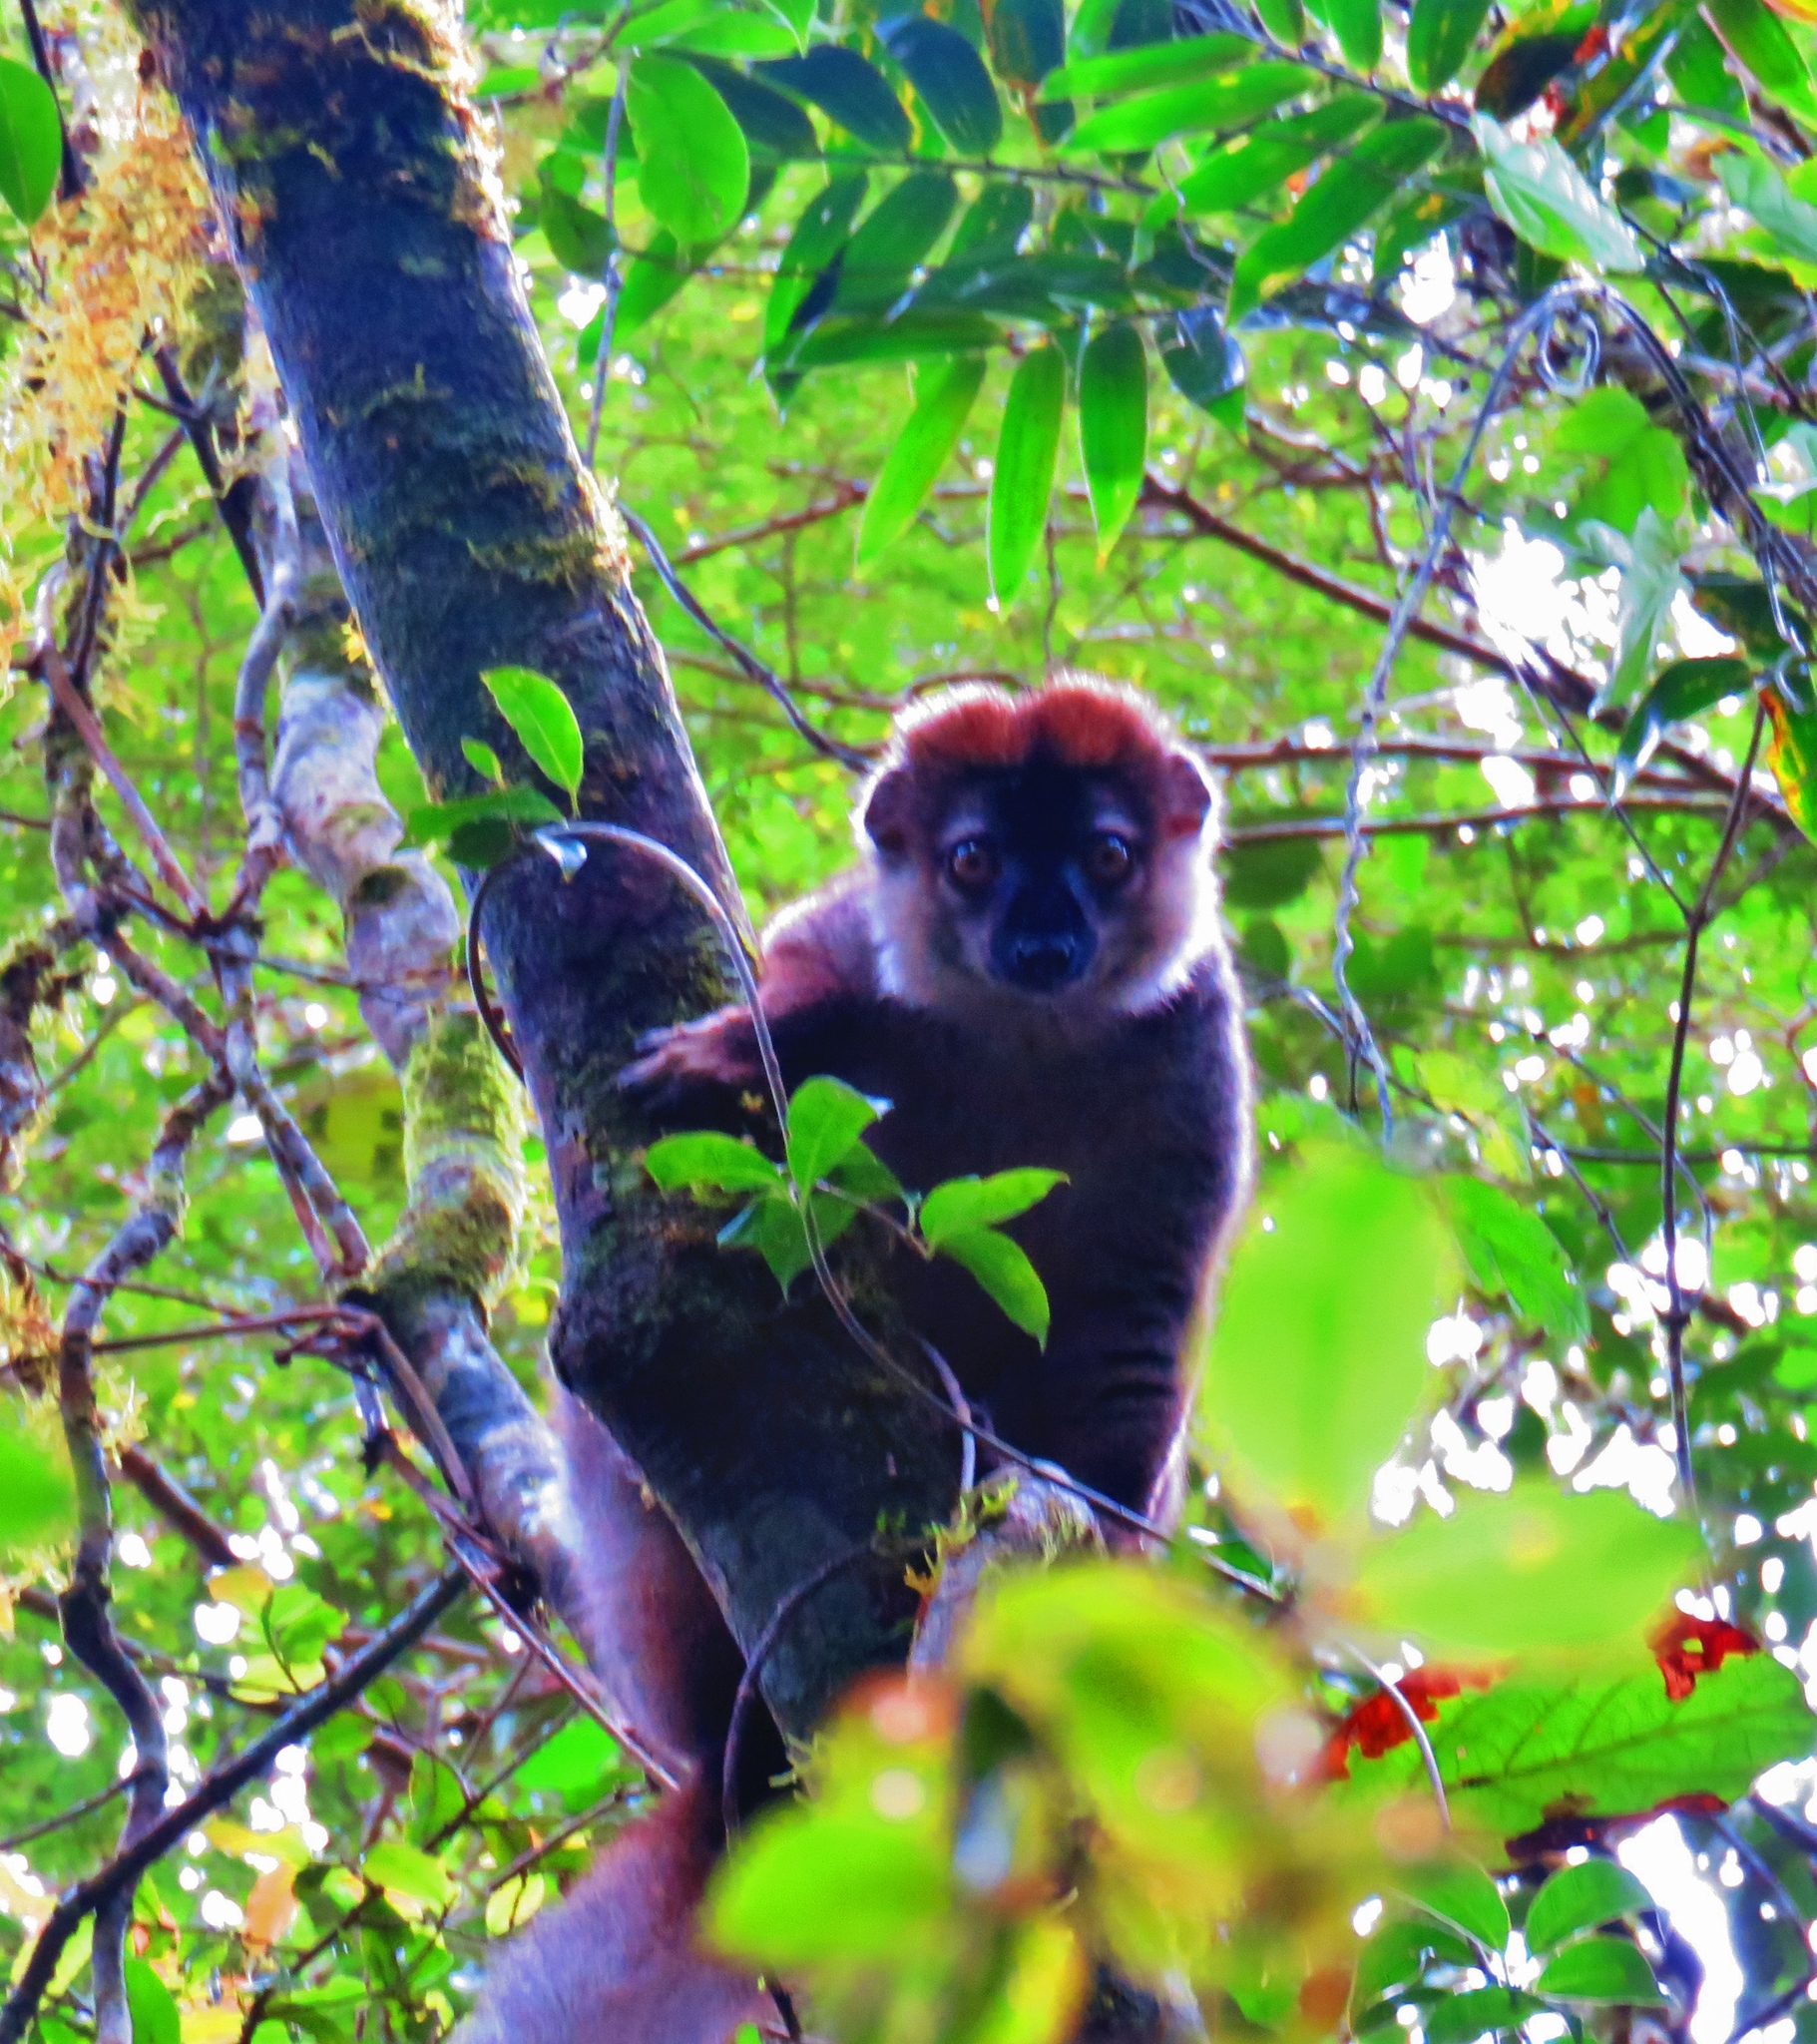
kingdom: Animalia
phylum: Chordata
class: Mammalia
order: Primates
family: Lemuridae
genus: Eulemur
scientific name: Eulemur rufifrons
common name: Red-fronted brown lemur
